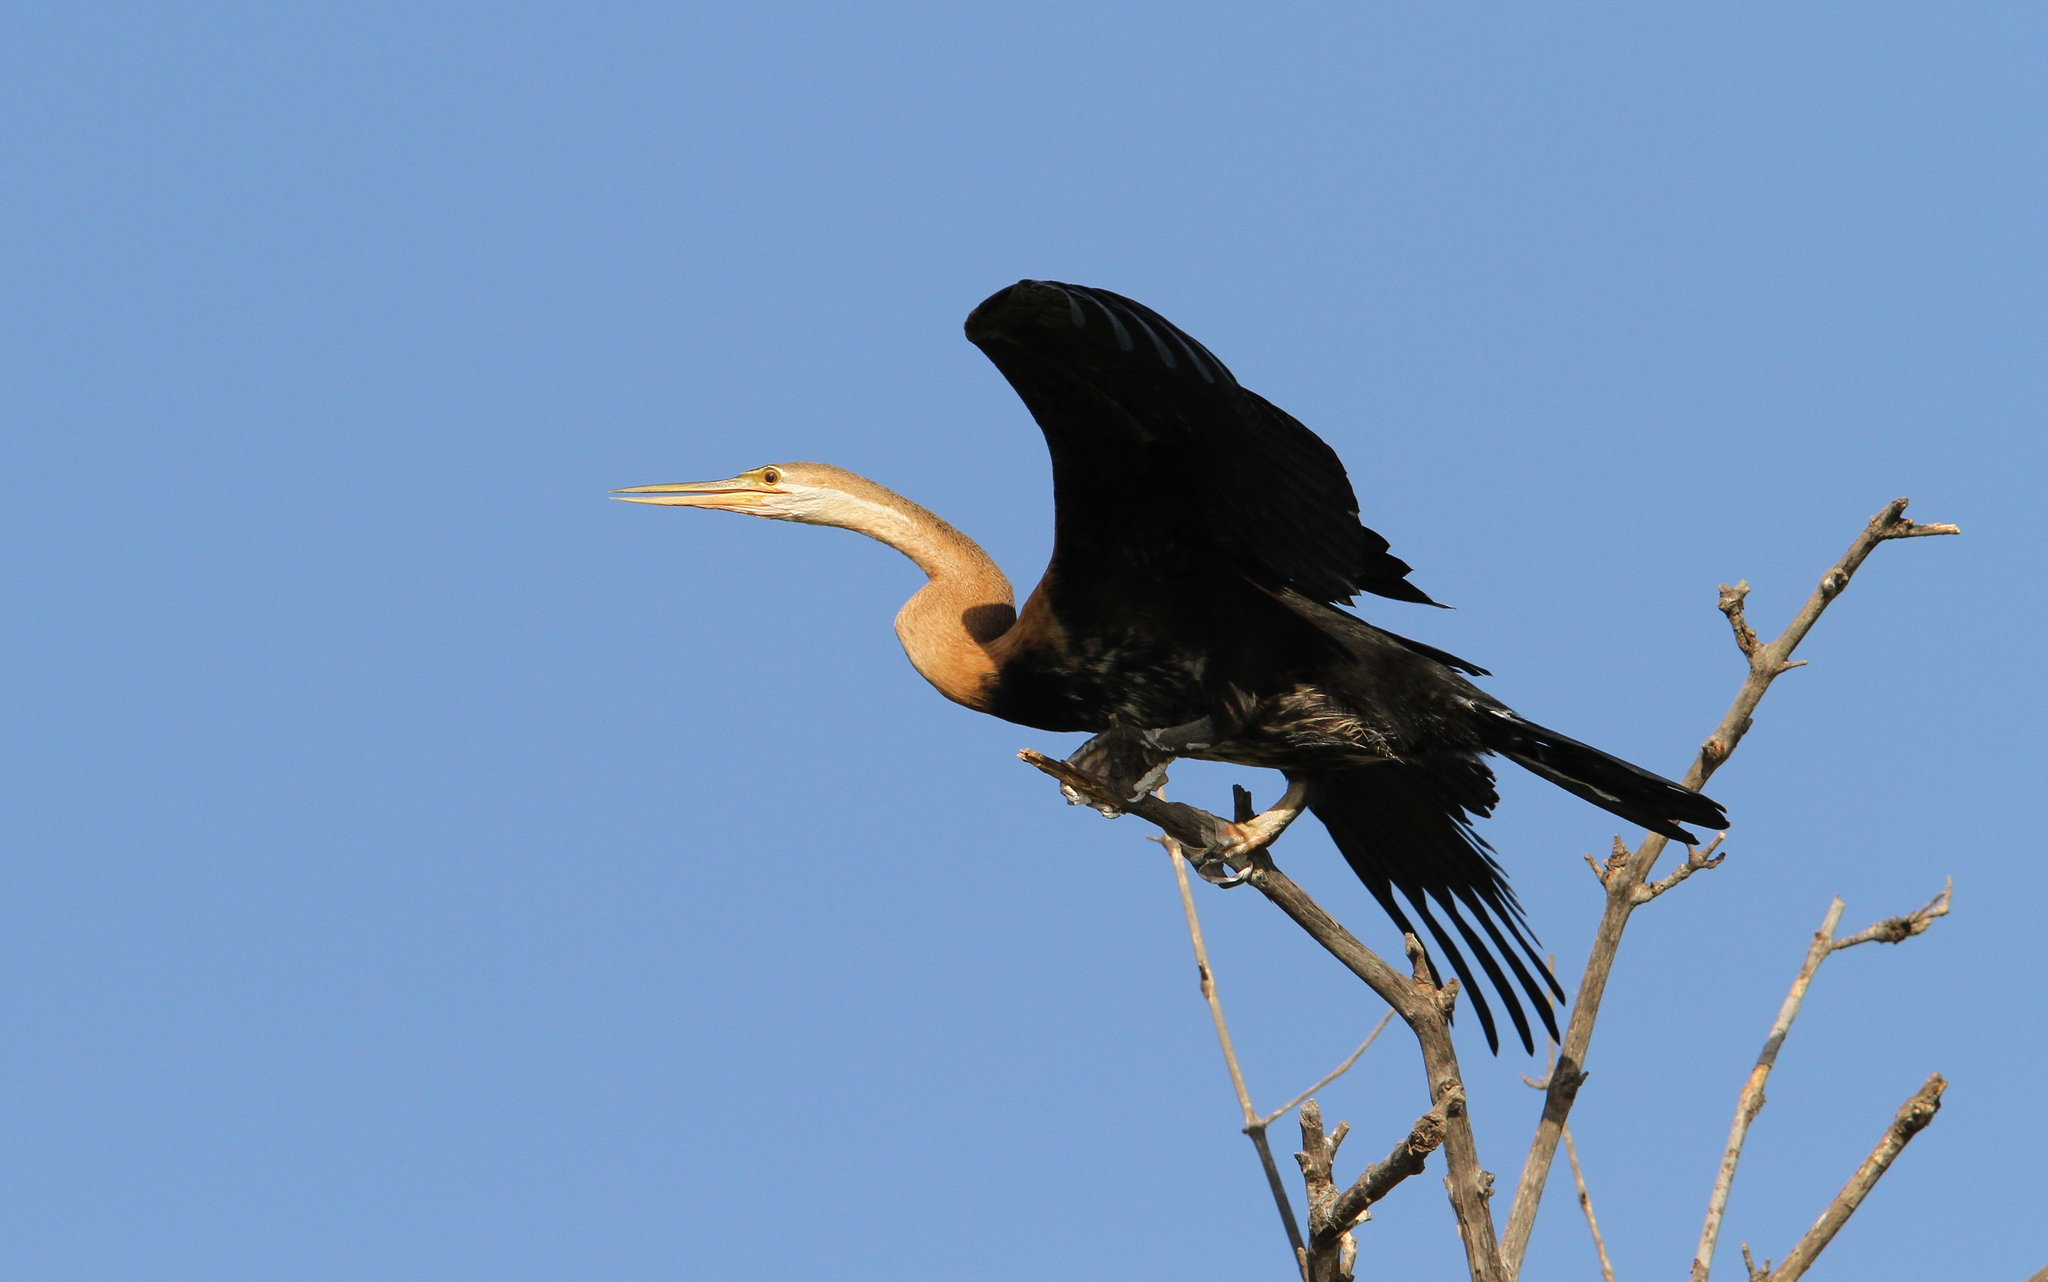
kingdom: Animalia
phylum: Chordata
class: Aves
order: Suliformes
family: Anhingidae
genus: Anhinga
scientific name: Anhinga rufa
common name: African darter
